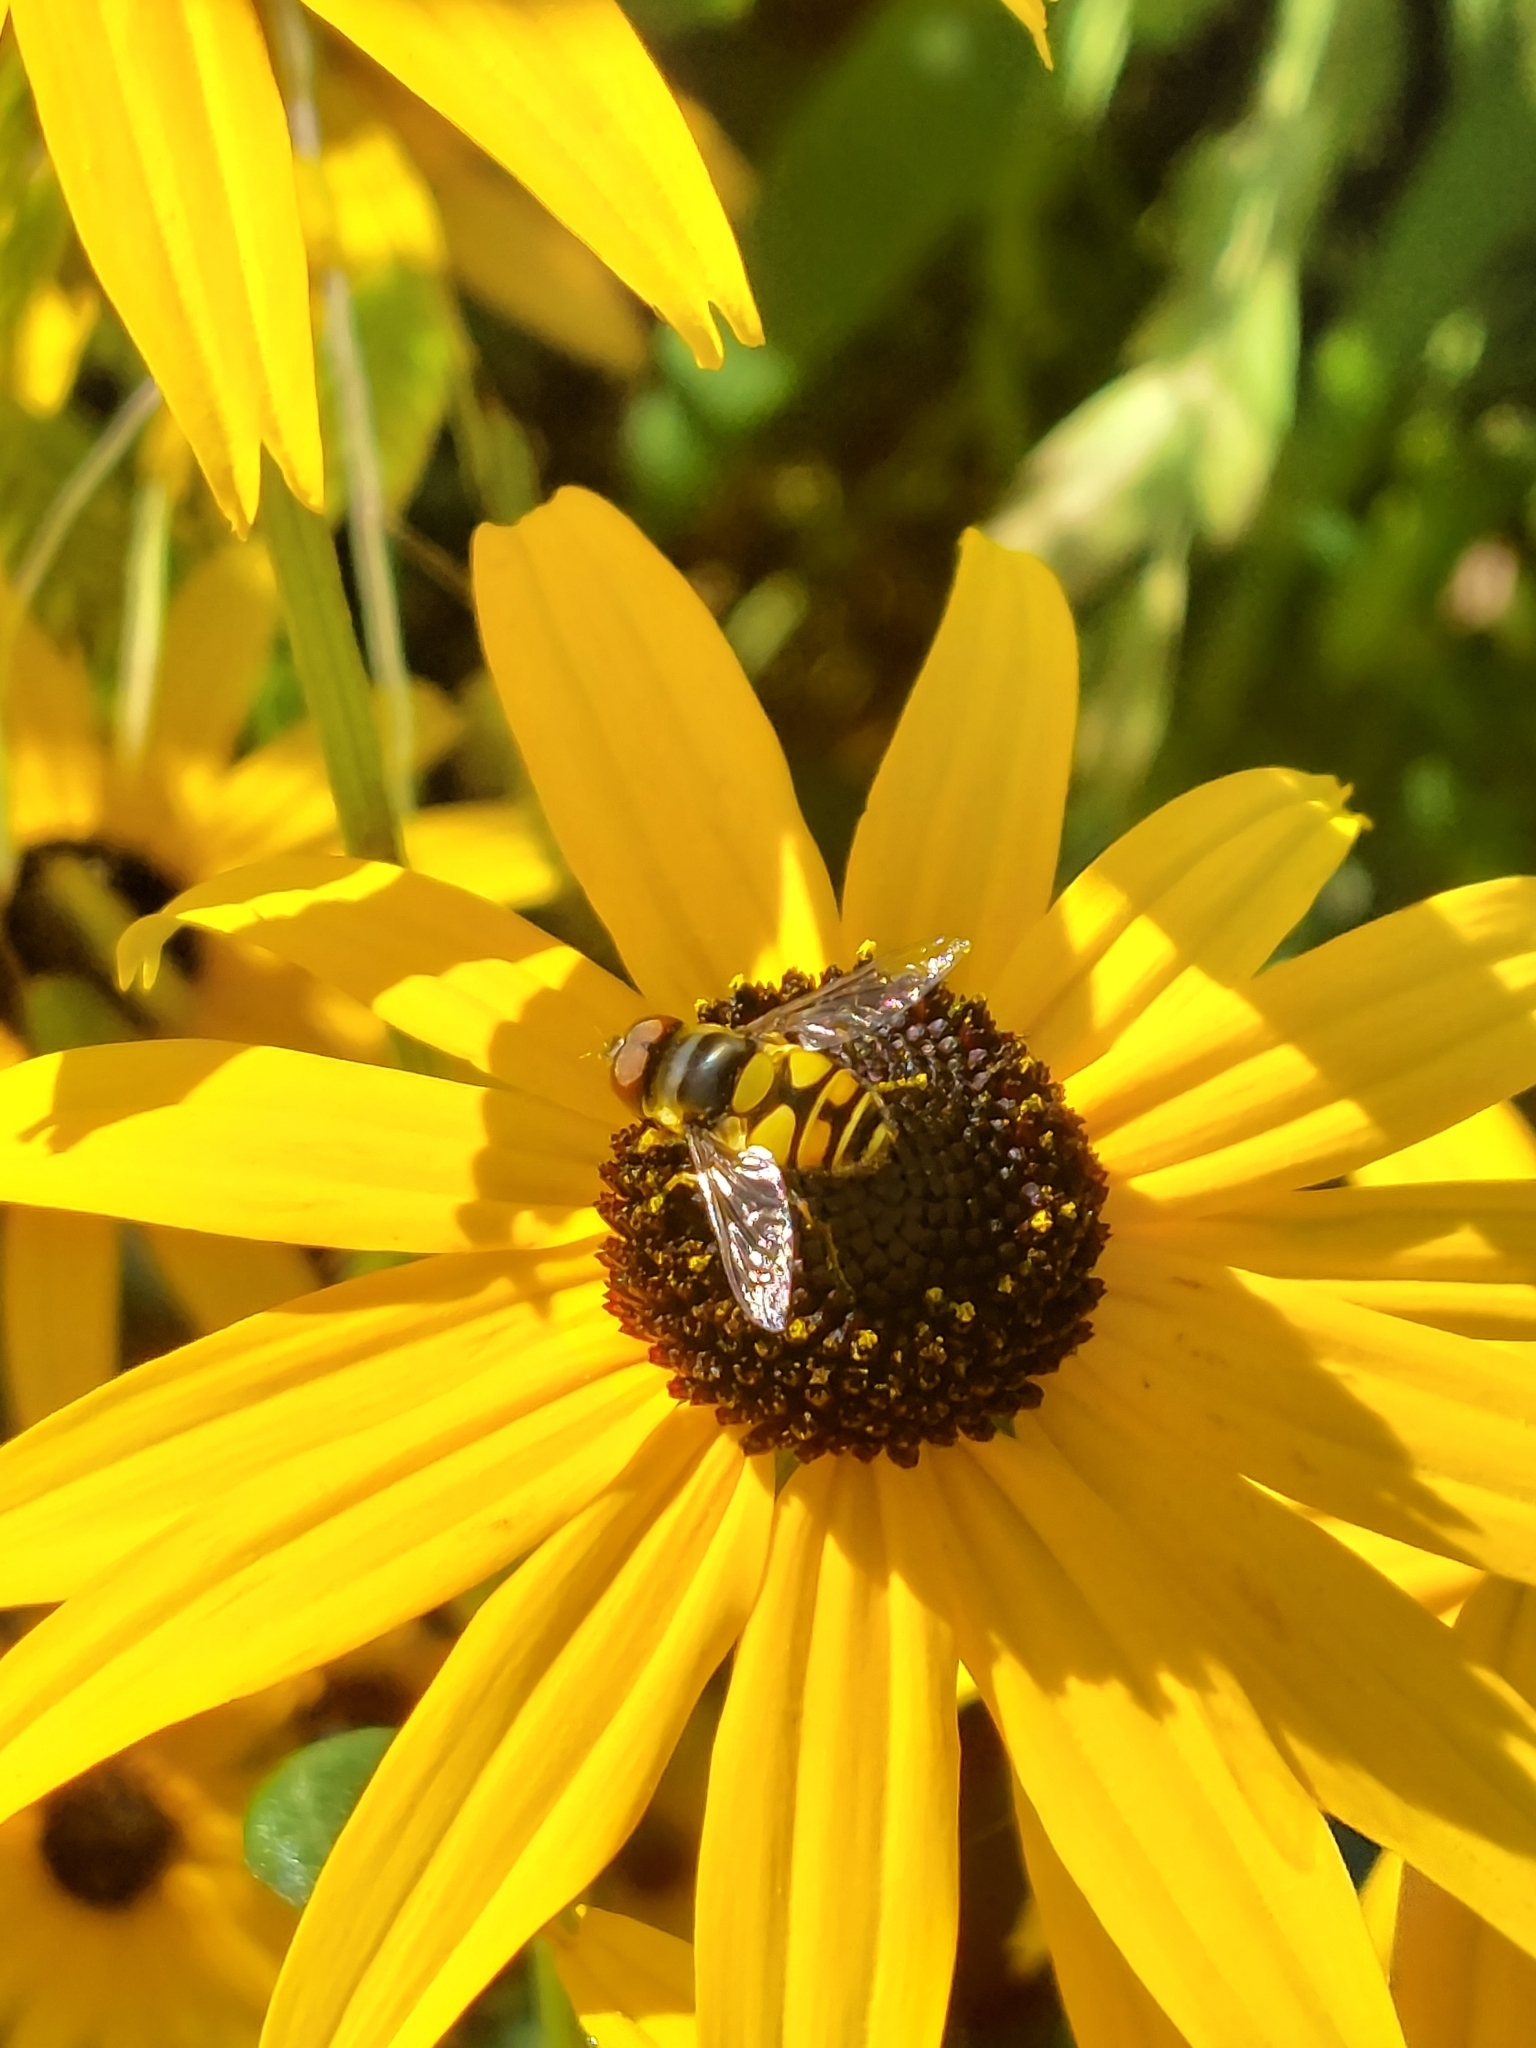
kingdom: Animalia
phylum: Arthropoda
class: Insecta
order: Diptera
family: Syrphidae
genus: Eristalis
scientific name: Eristalis transversa
